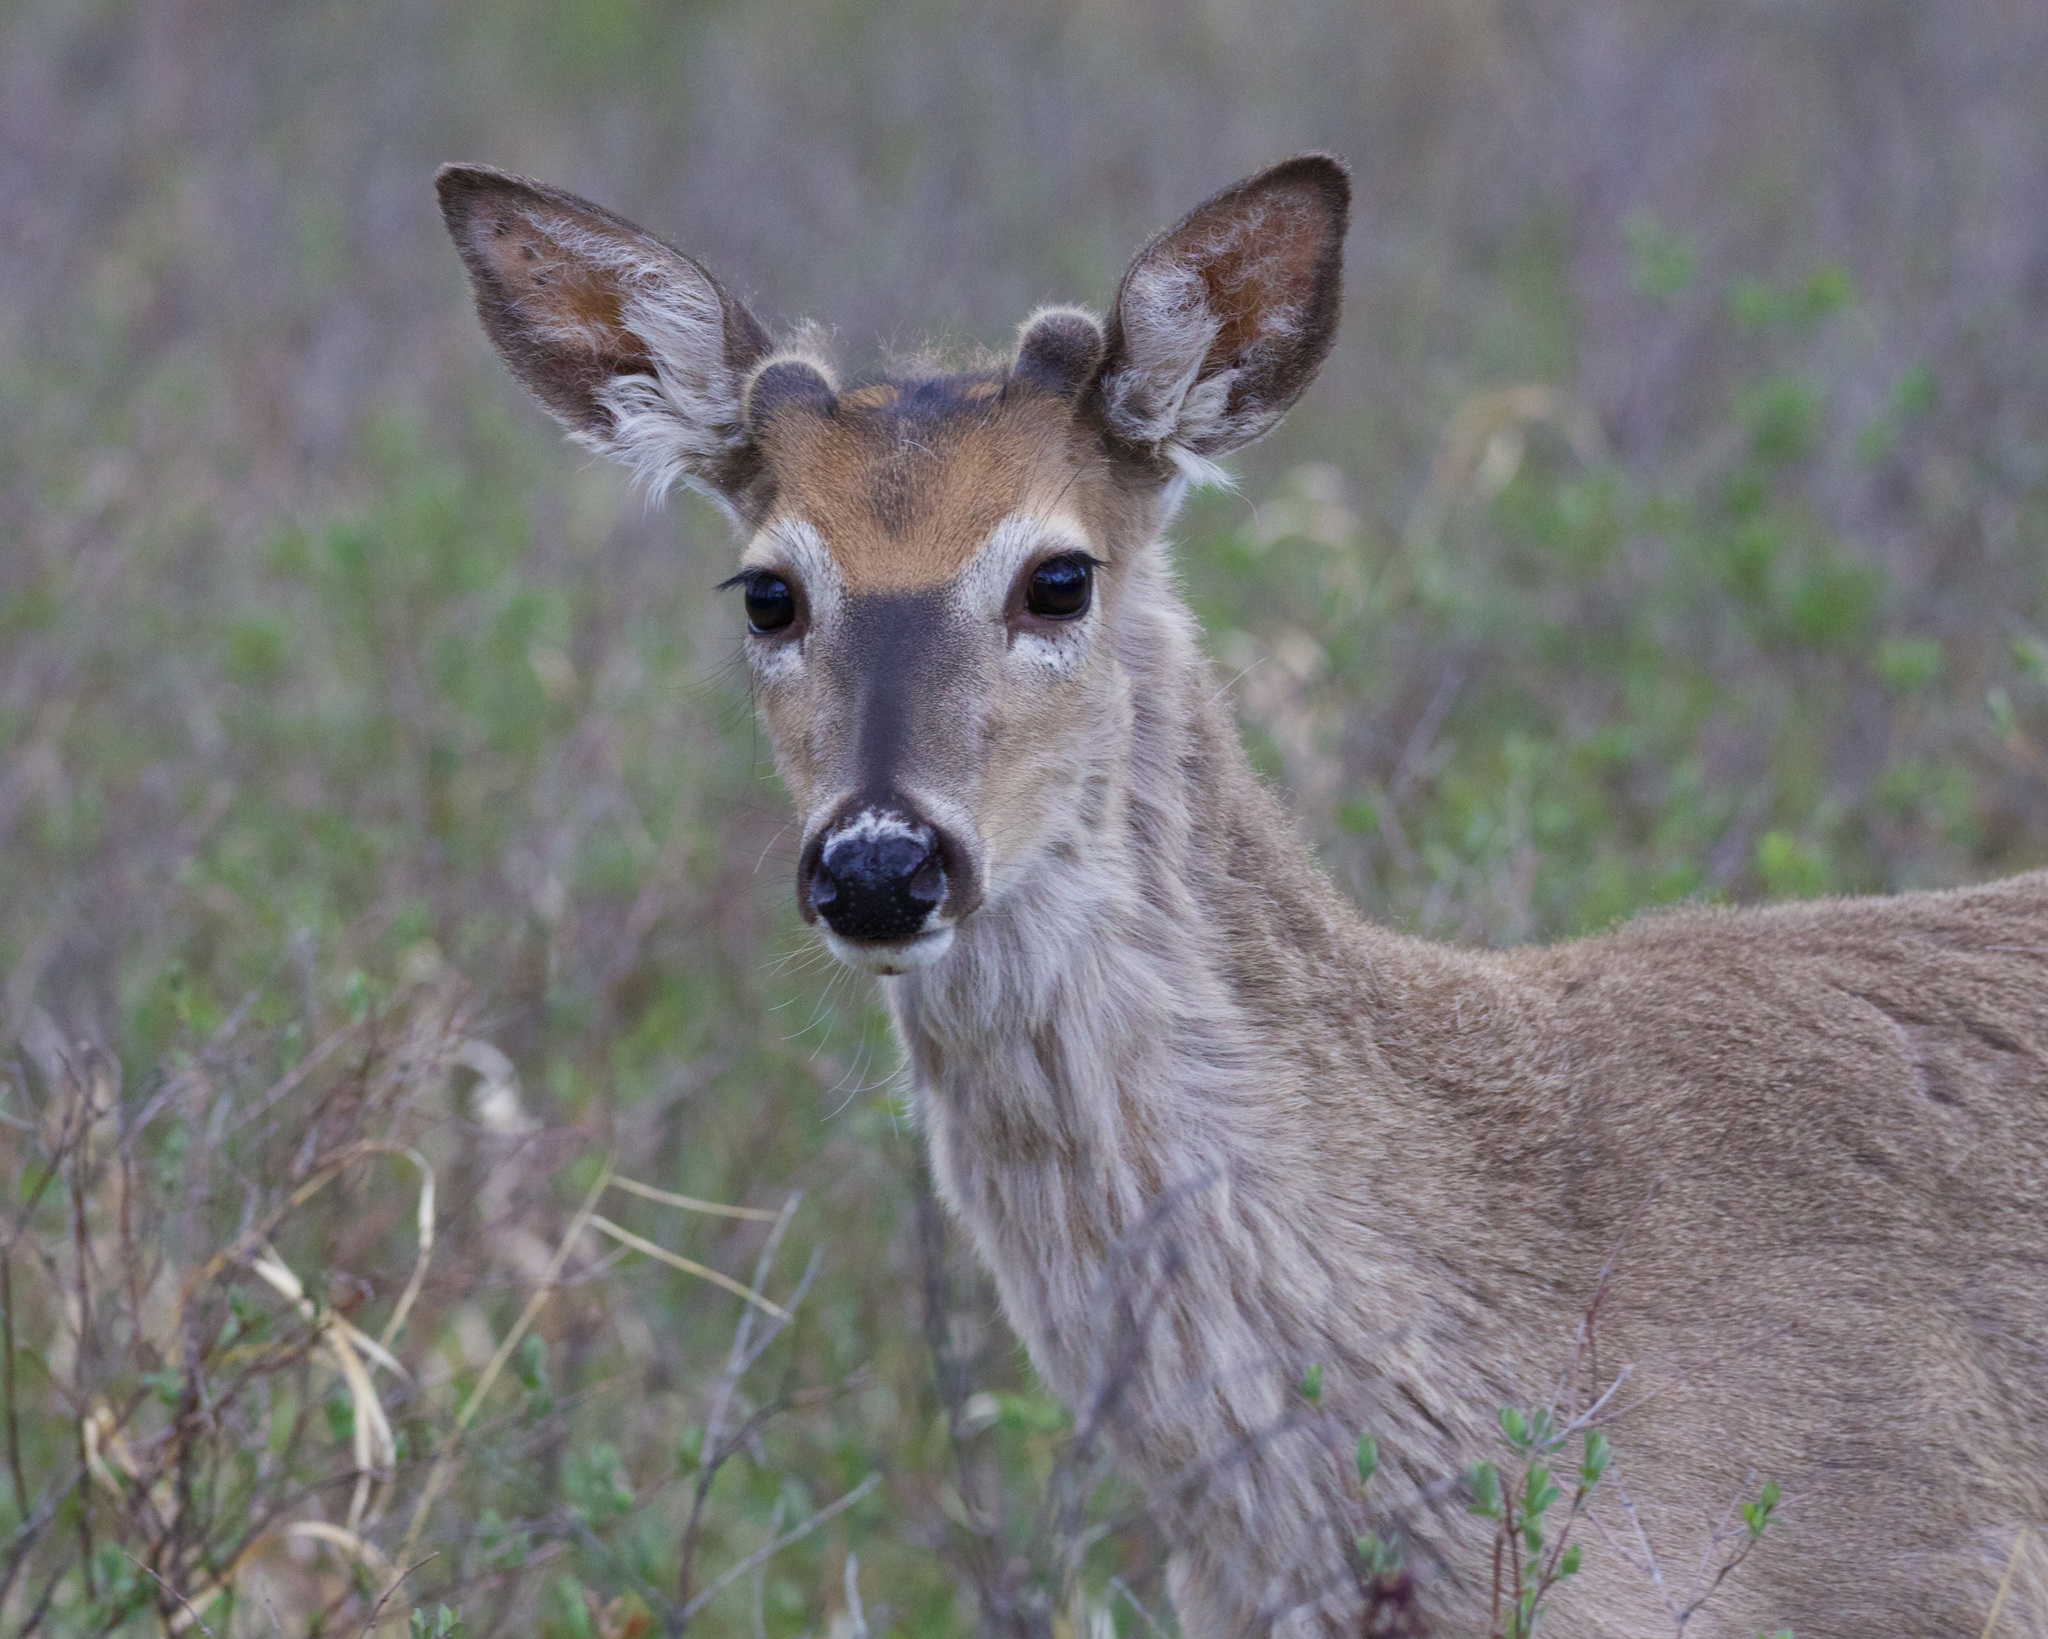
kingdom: Animalia
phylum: Chordata
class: Mammalia
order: Artiodactyla
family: Cervidae
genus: Odocoileus
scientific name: Odocoileus virginianus
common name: White-tailed deer
